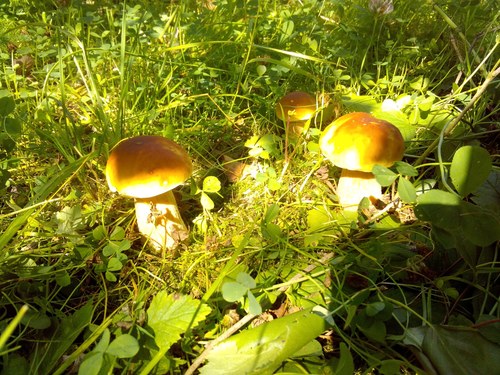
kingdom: Fungi
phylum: Basidiomycota
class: Agaricomycetes
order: Boletales
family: Boletaceae
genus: Boletus
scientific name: Boletus edulis
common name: Cep
